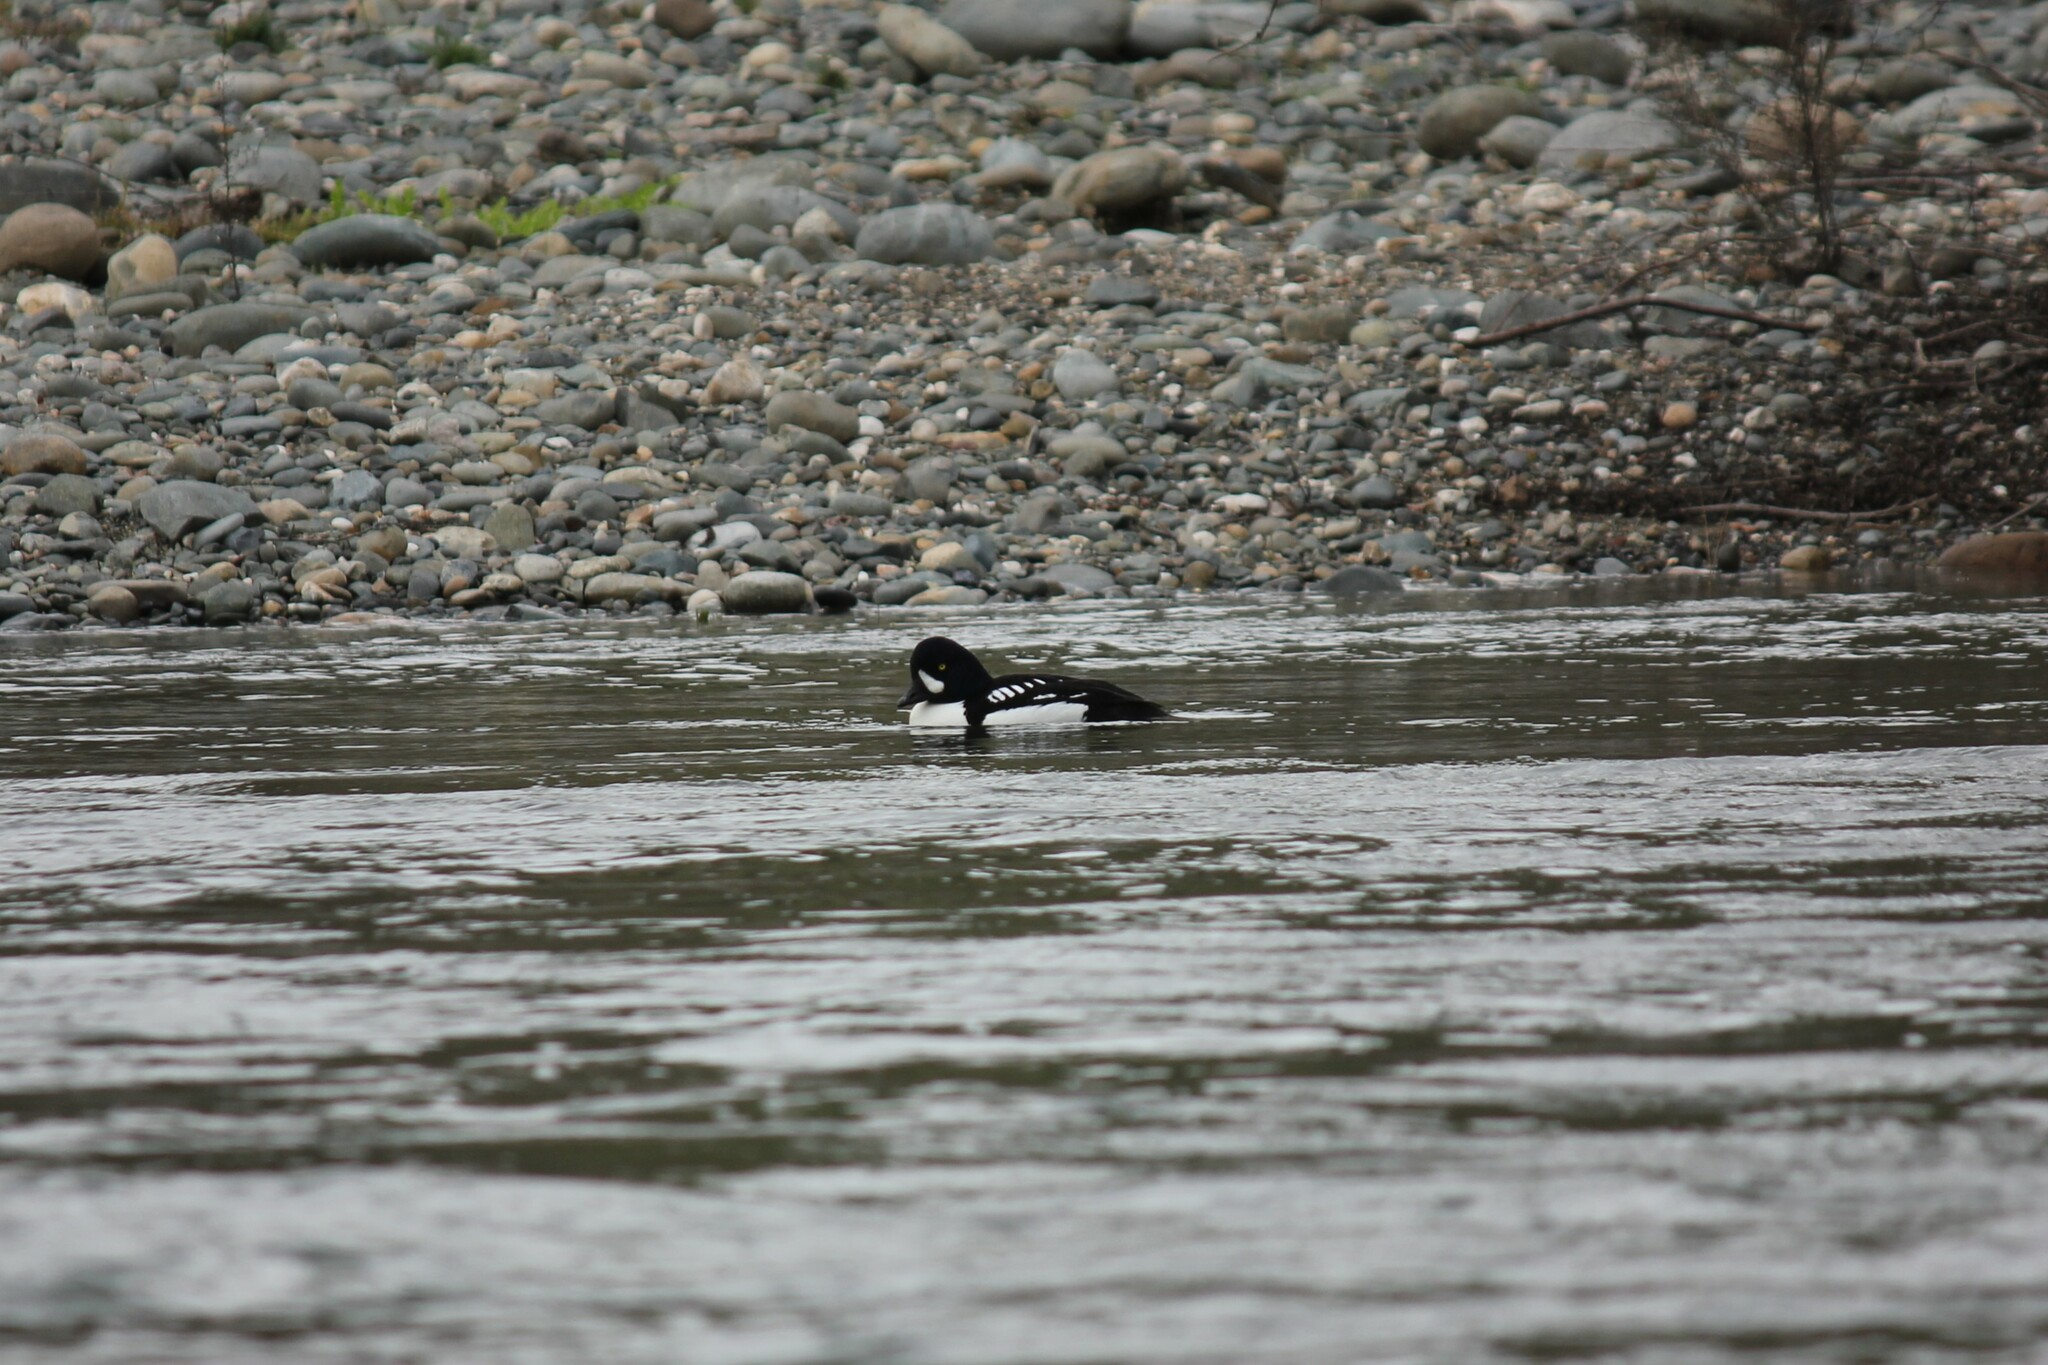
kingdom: Animalia
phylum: Chordata
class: Aves
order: Anseriformes
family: Anatidae
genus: Bucephala
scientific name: Bucephala islandica
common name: Barrow's goldeneye
